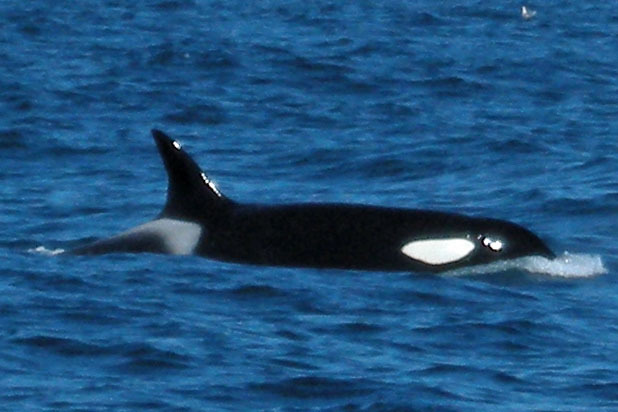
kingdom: Animalia
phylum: Chordata
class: Mammalia
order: Cetacea
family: Delphinidae
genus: Orcinus
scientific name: Orcinus orca
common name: Killer whale
